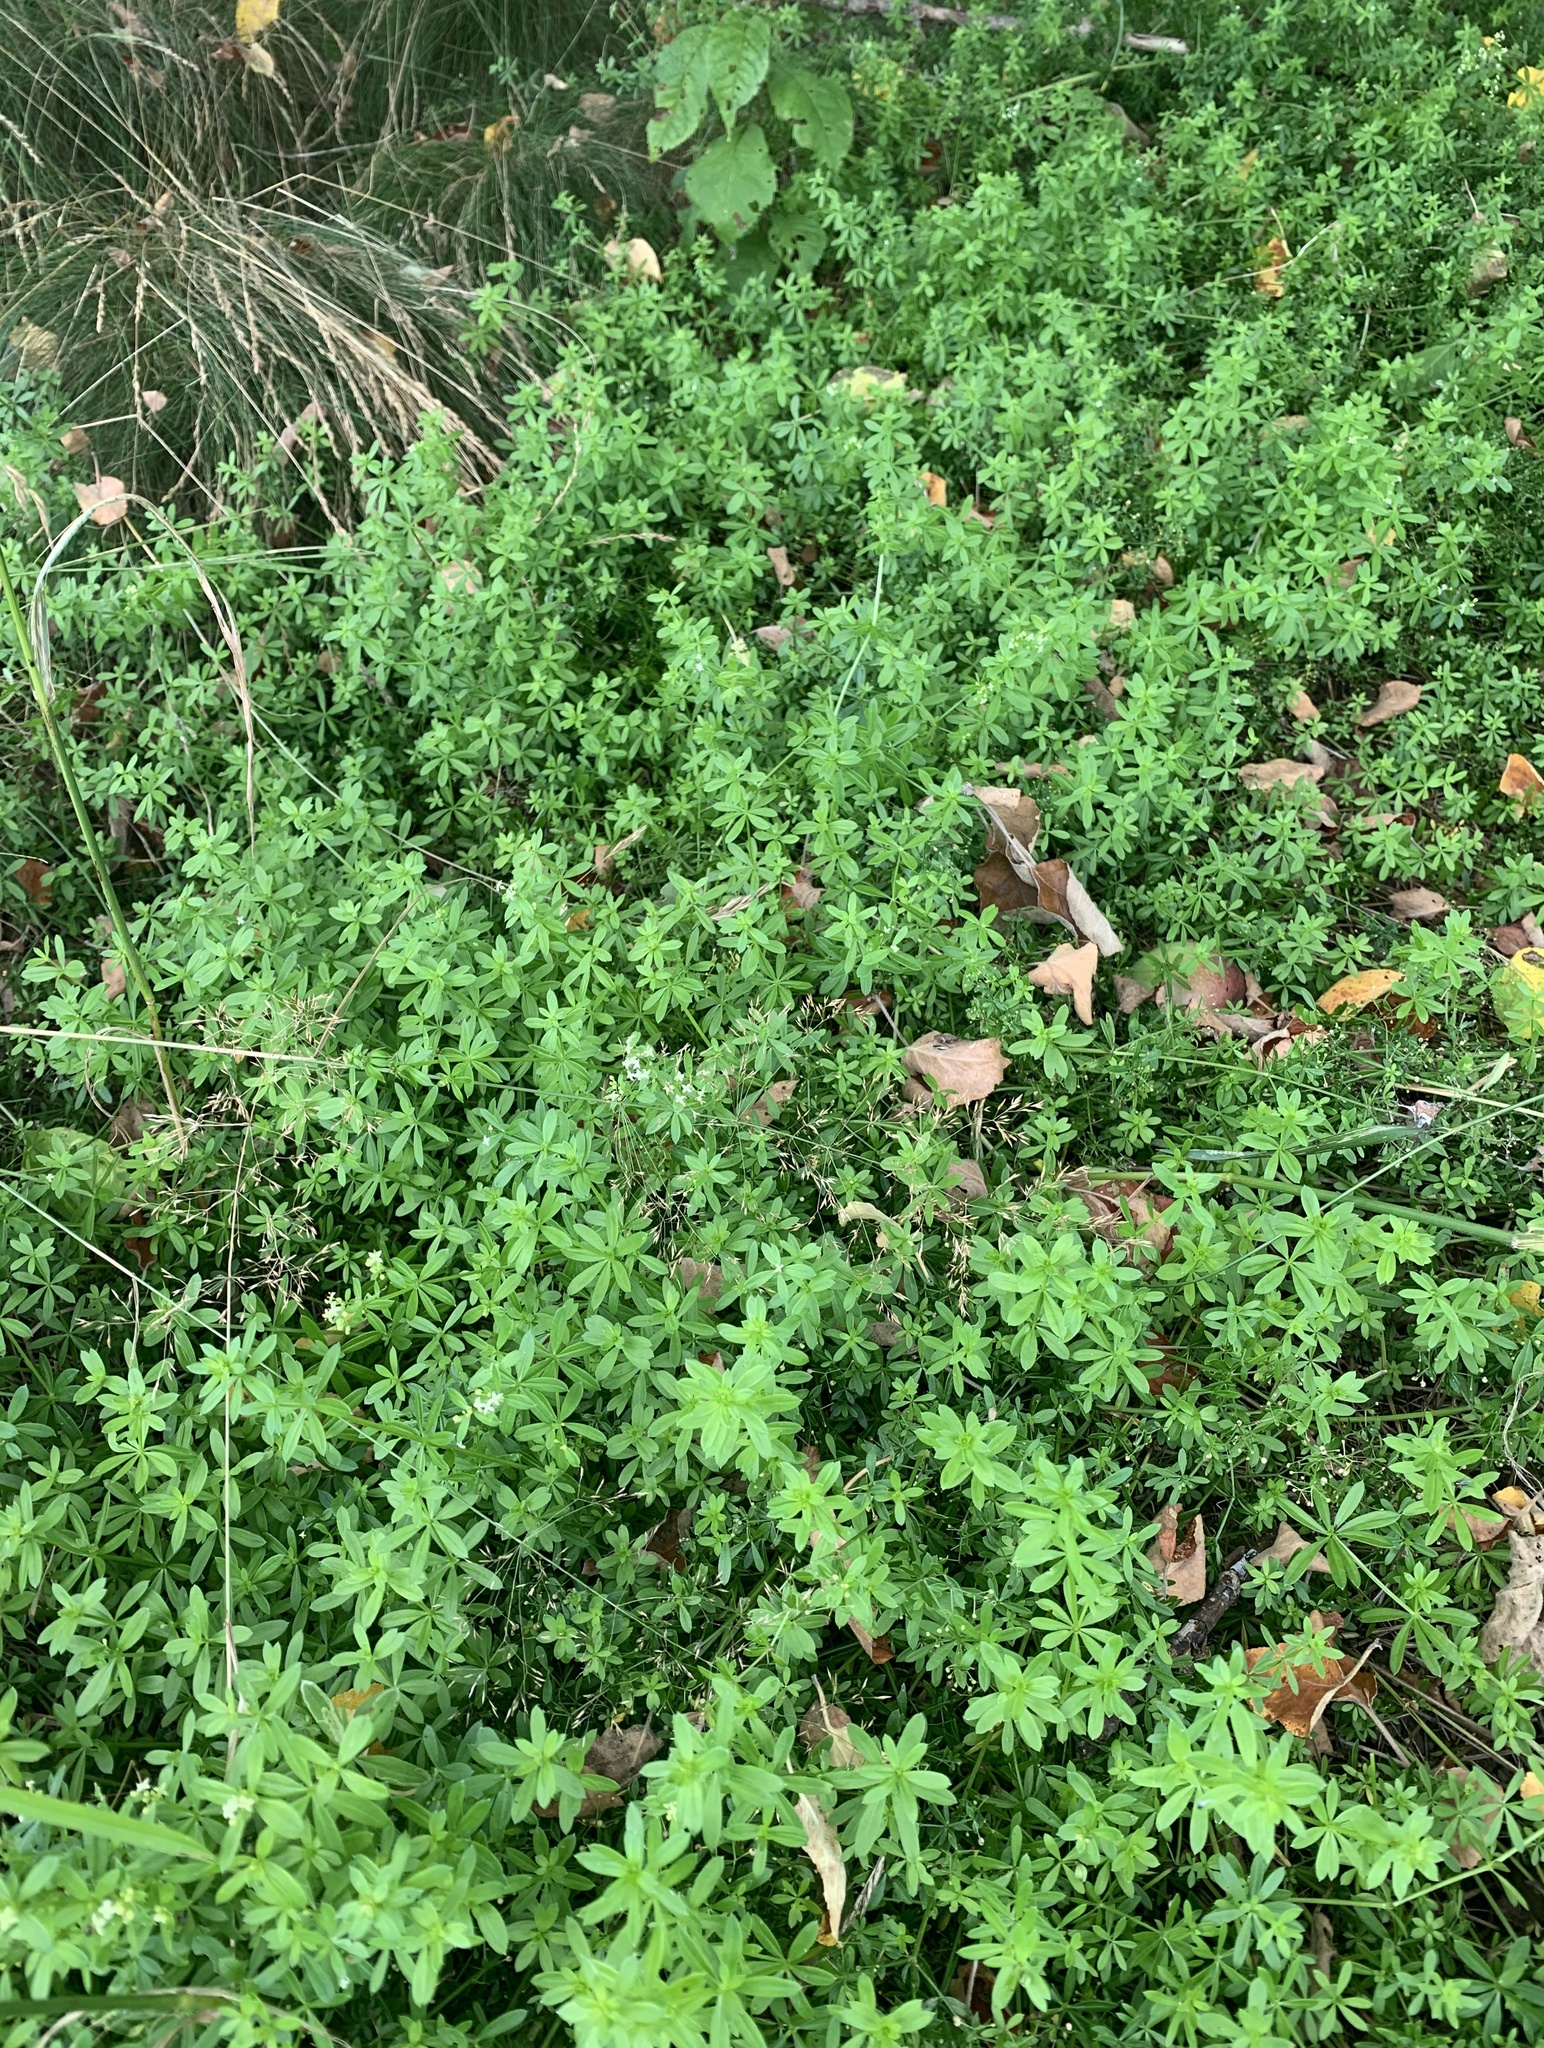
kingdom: Plantae
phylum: Tracheophyta
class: Magnoliopsida
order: Gentianales
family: Rubiaceae
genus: Galium
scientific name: Galium mollugo
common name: Hedge bedstraw
